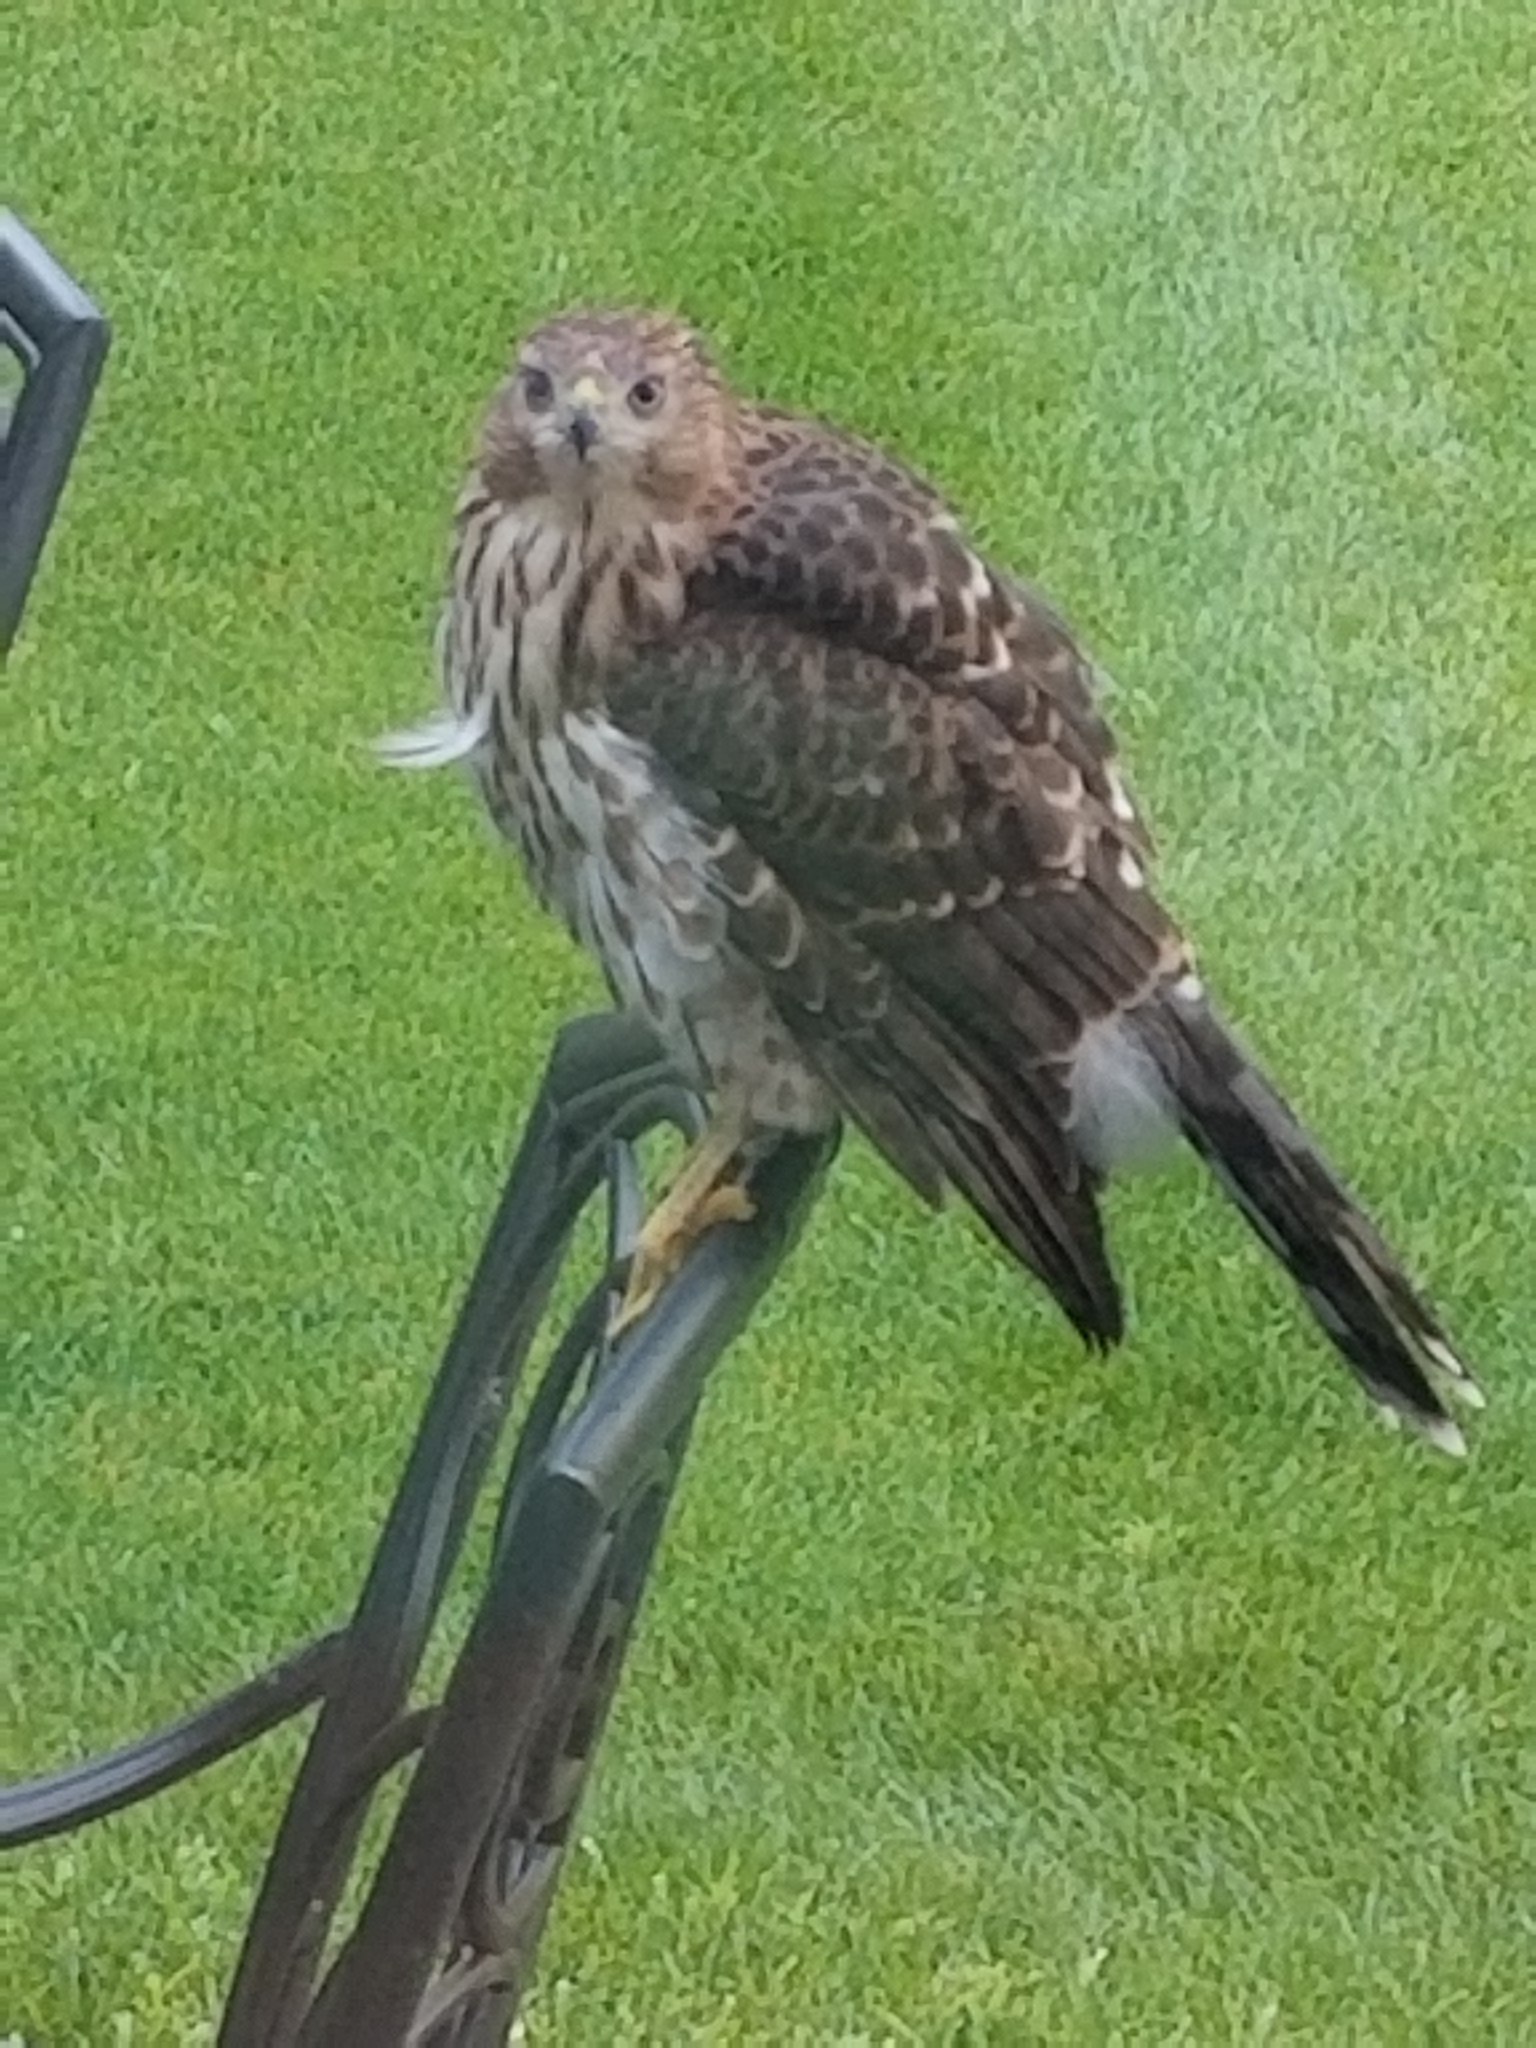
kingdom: Animalia
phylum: Chordata
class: Aves
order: Accipitriformes
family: Accipitridae
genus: Accipiter
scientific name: Accipiter cooperii
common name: Cooper's hawk
